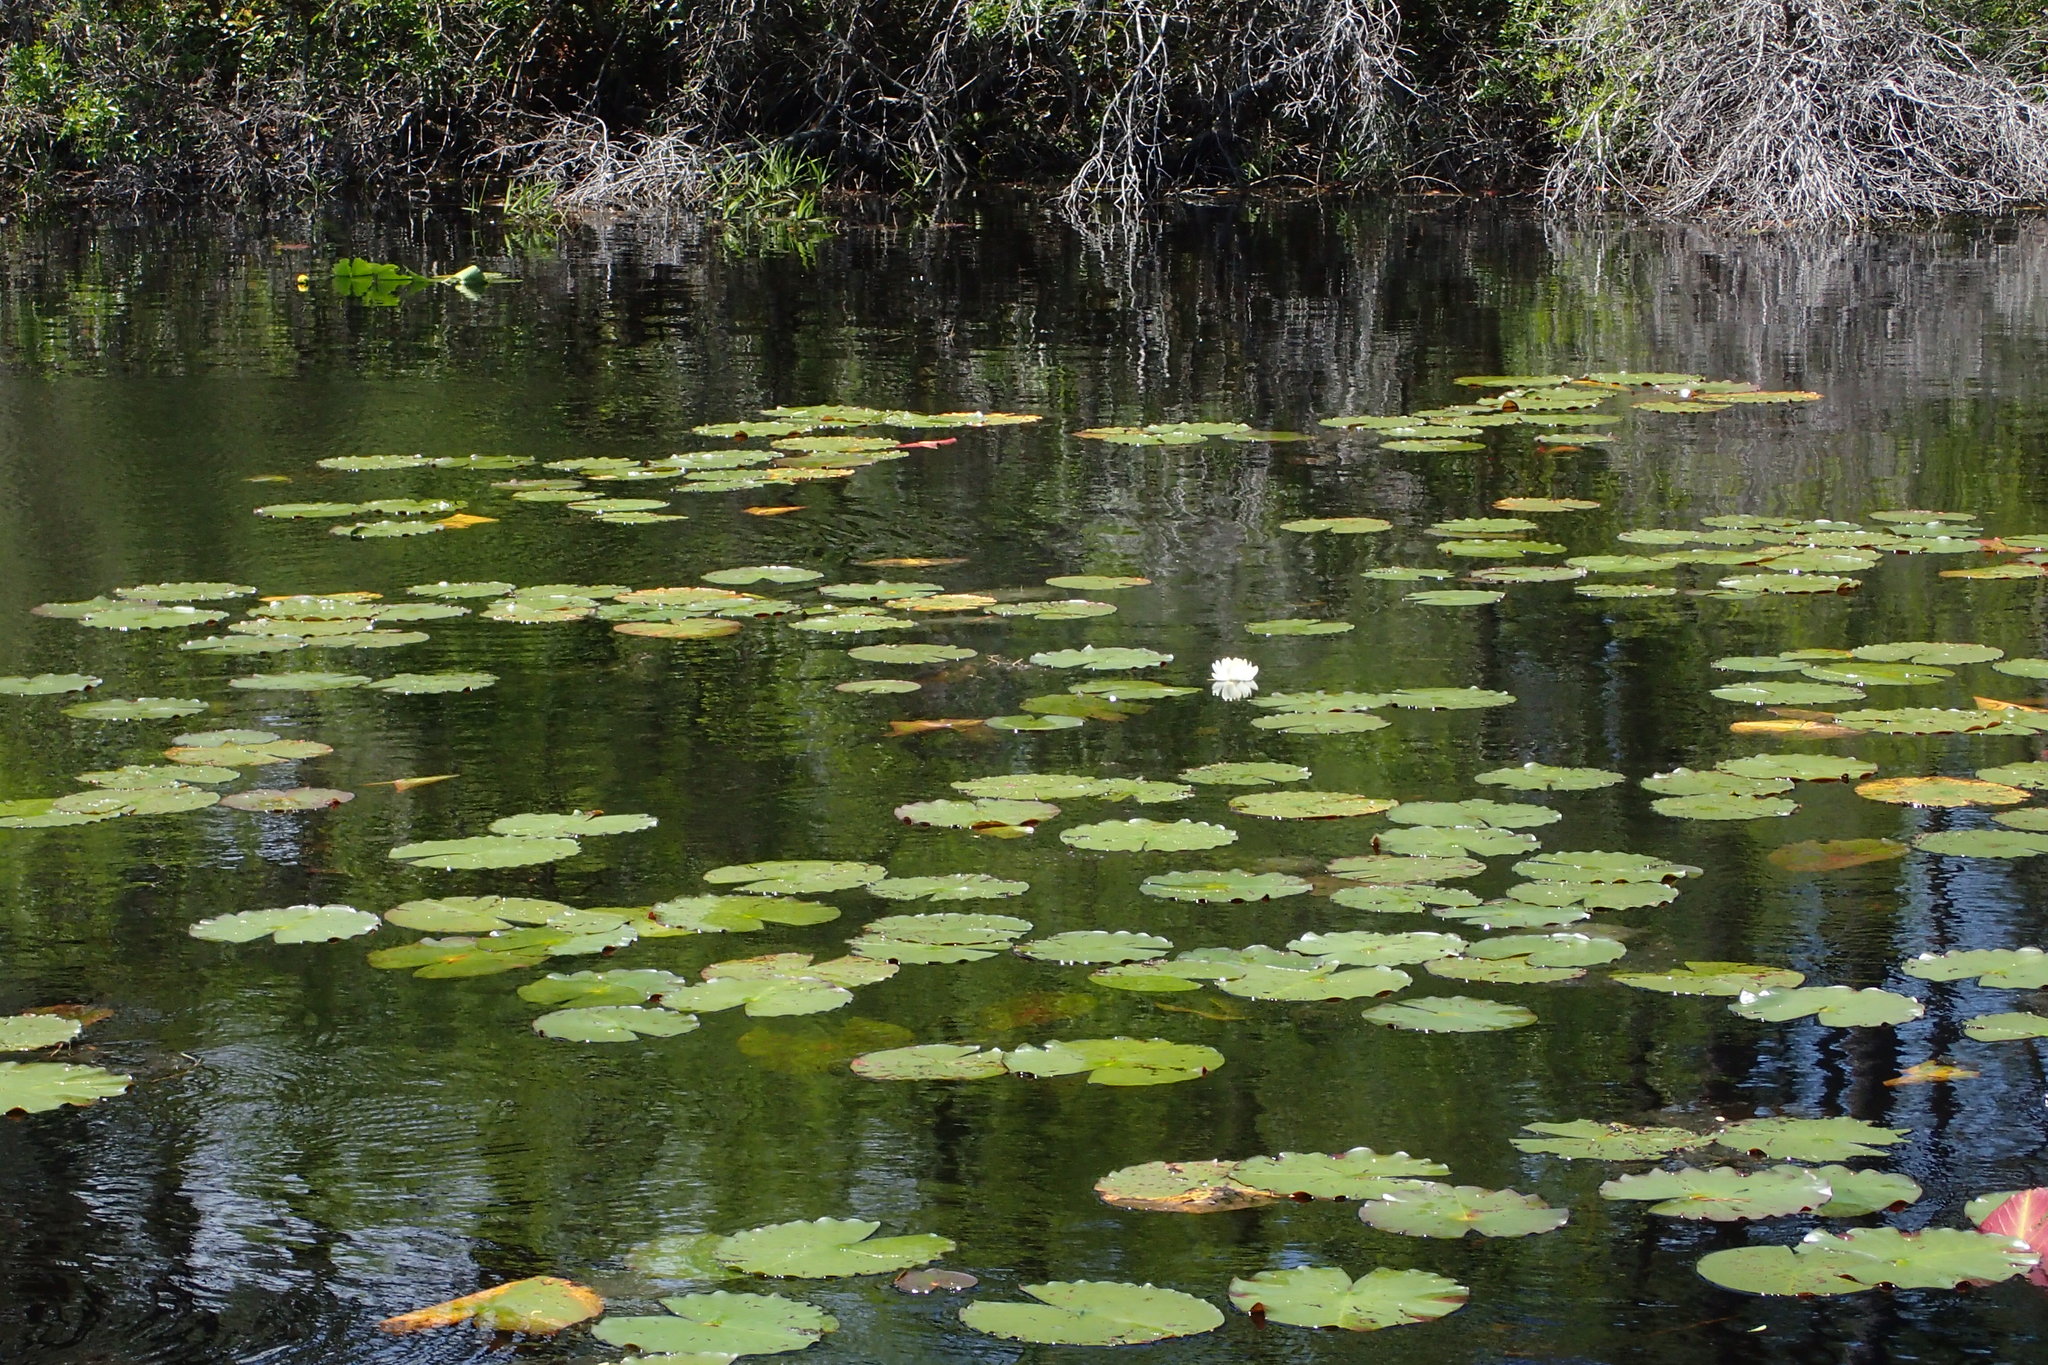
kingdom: Plantae
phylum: Tracheophyta
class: Magnoliopsida
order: Nymphaeales
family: Nymphaeaceae
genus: Nymphaea
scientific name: Nymphaea odorata
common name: Fragrant water-lily
